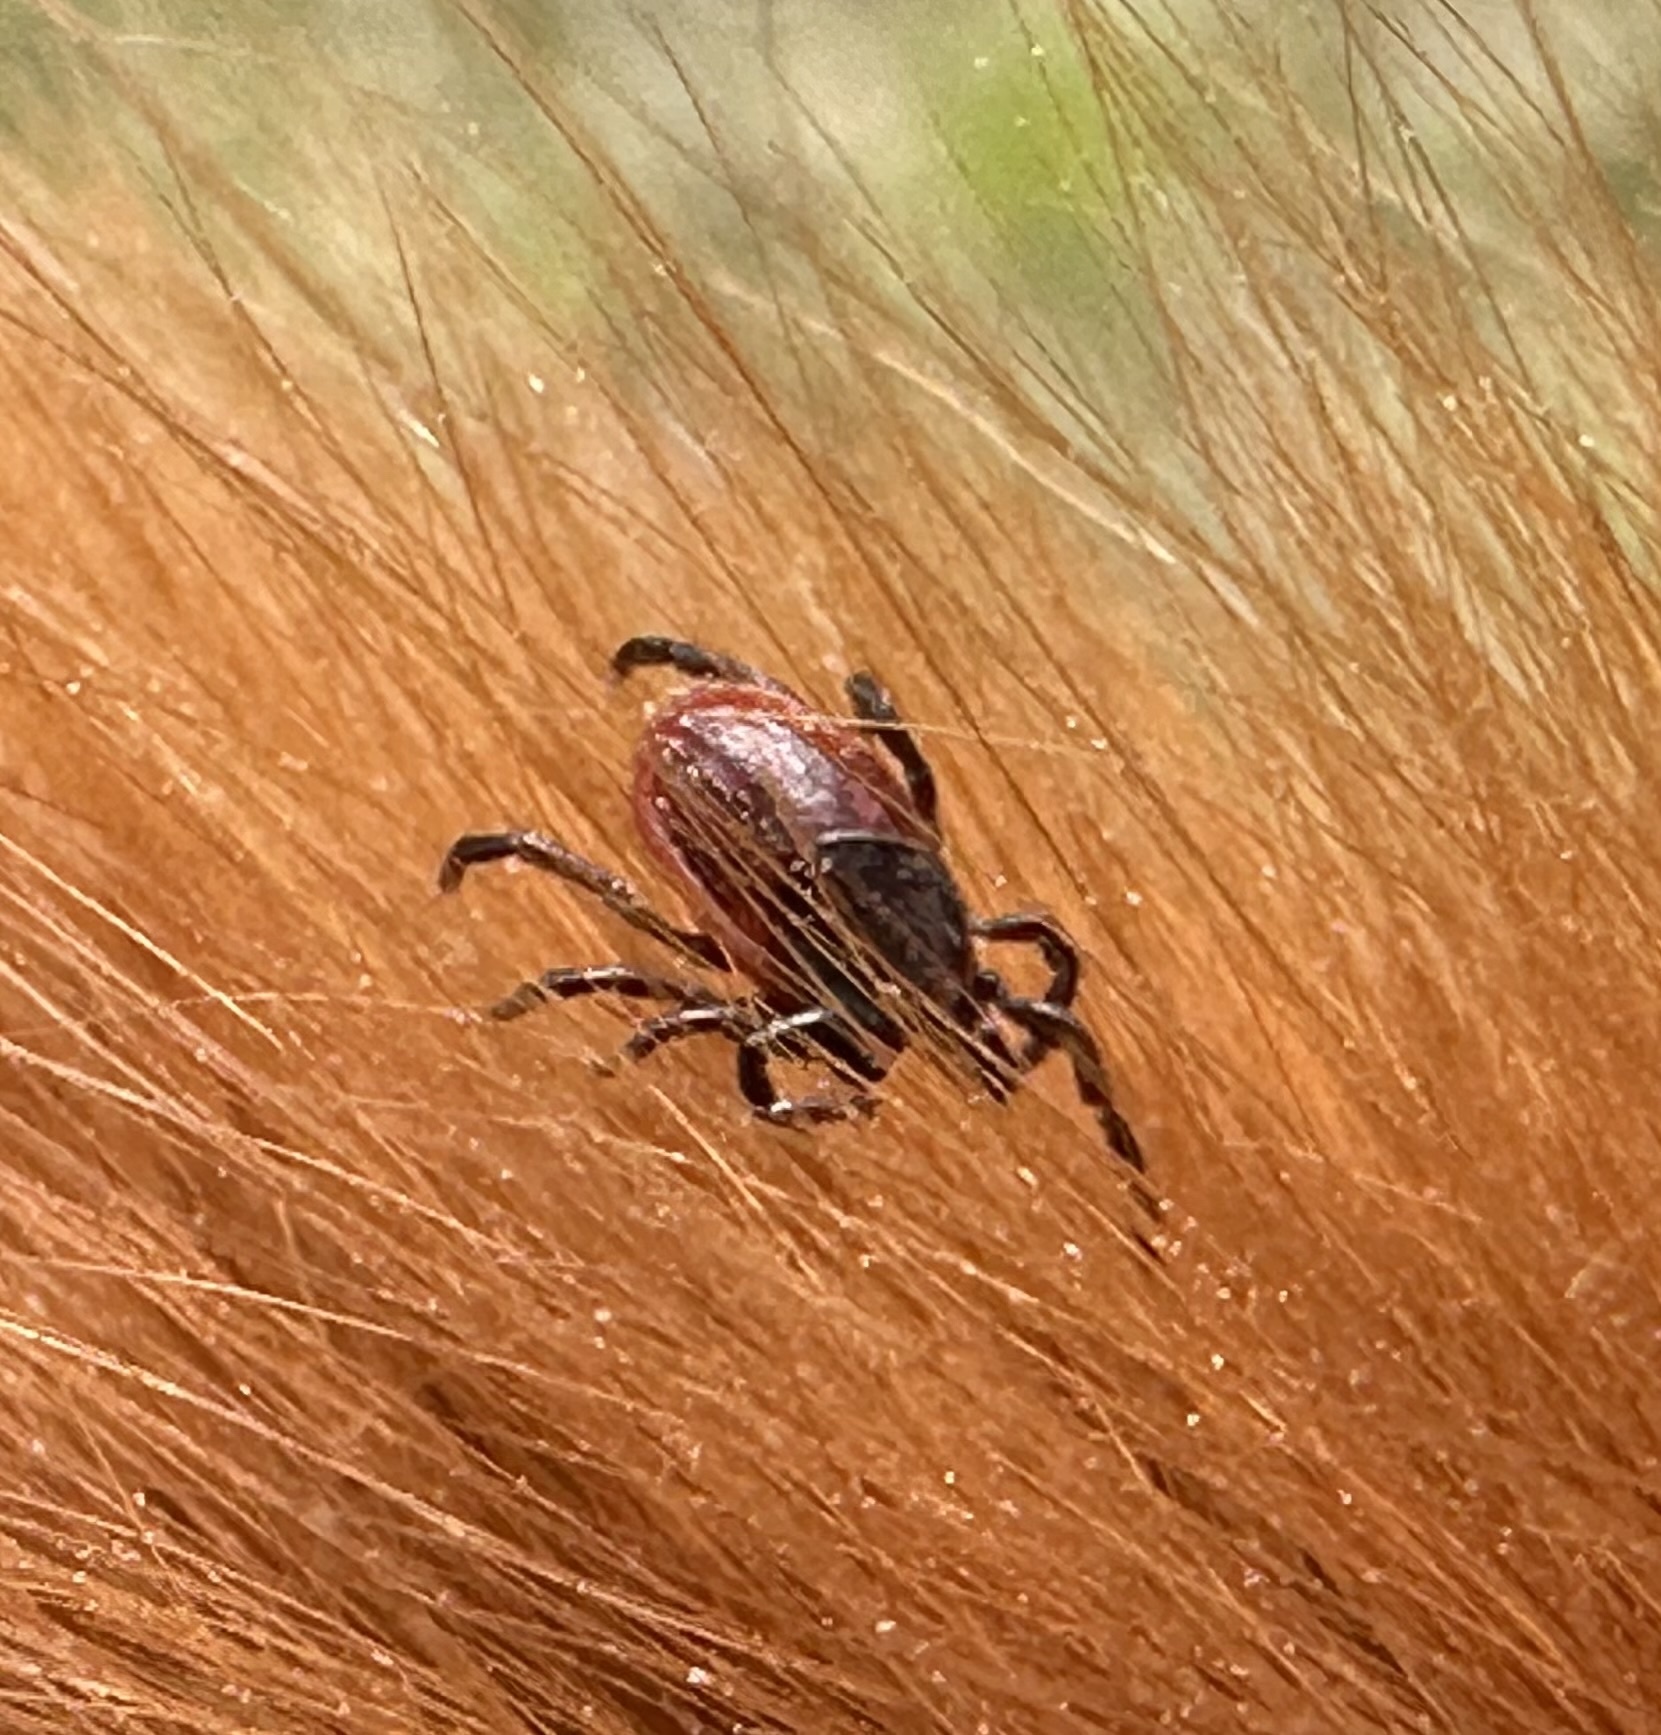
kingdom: Animalia
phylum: Arthropoda
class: Arachnida
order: Ixodida
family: Ixodidae
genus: Ixodes
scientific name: Ixodes pacificus
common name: California black-legged tick
